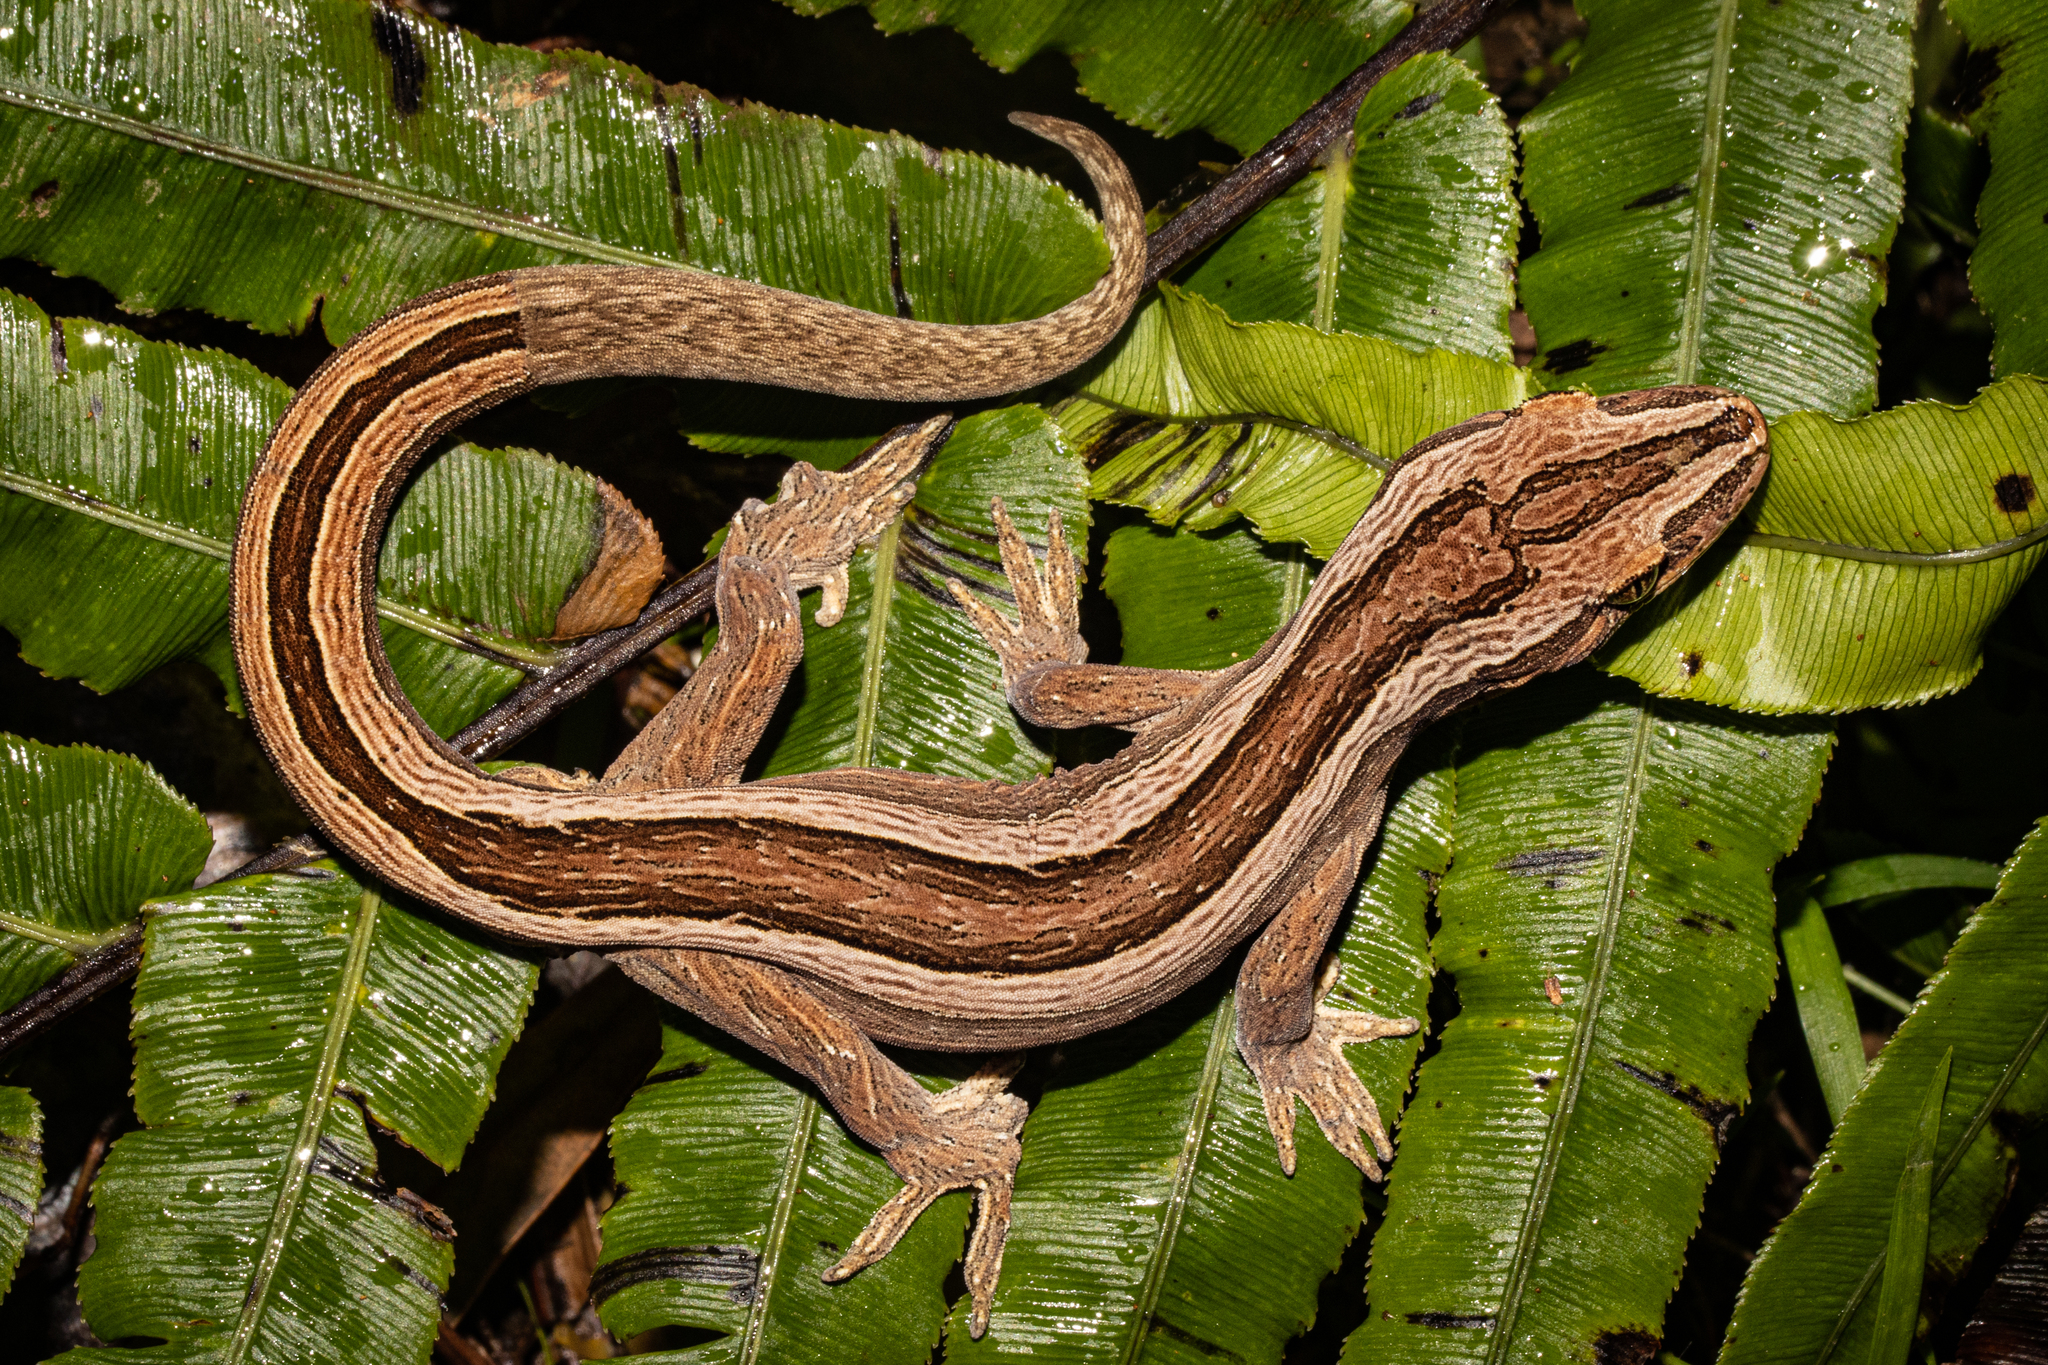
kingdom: Animalia
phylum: Chordata
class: Squamata
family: Diplodactylidae
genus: Toropuku
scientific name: Toropuku inexpectatus
